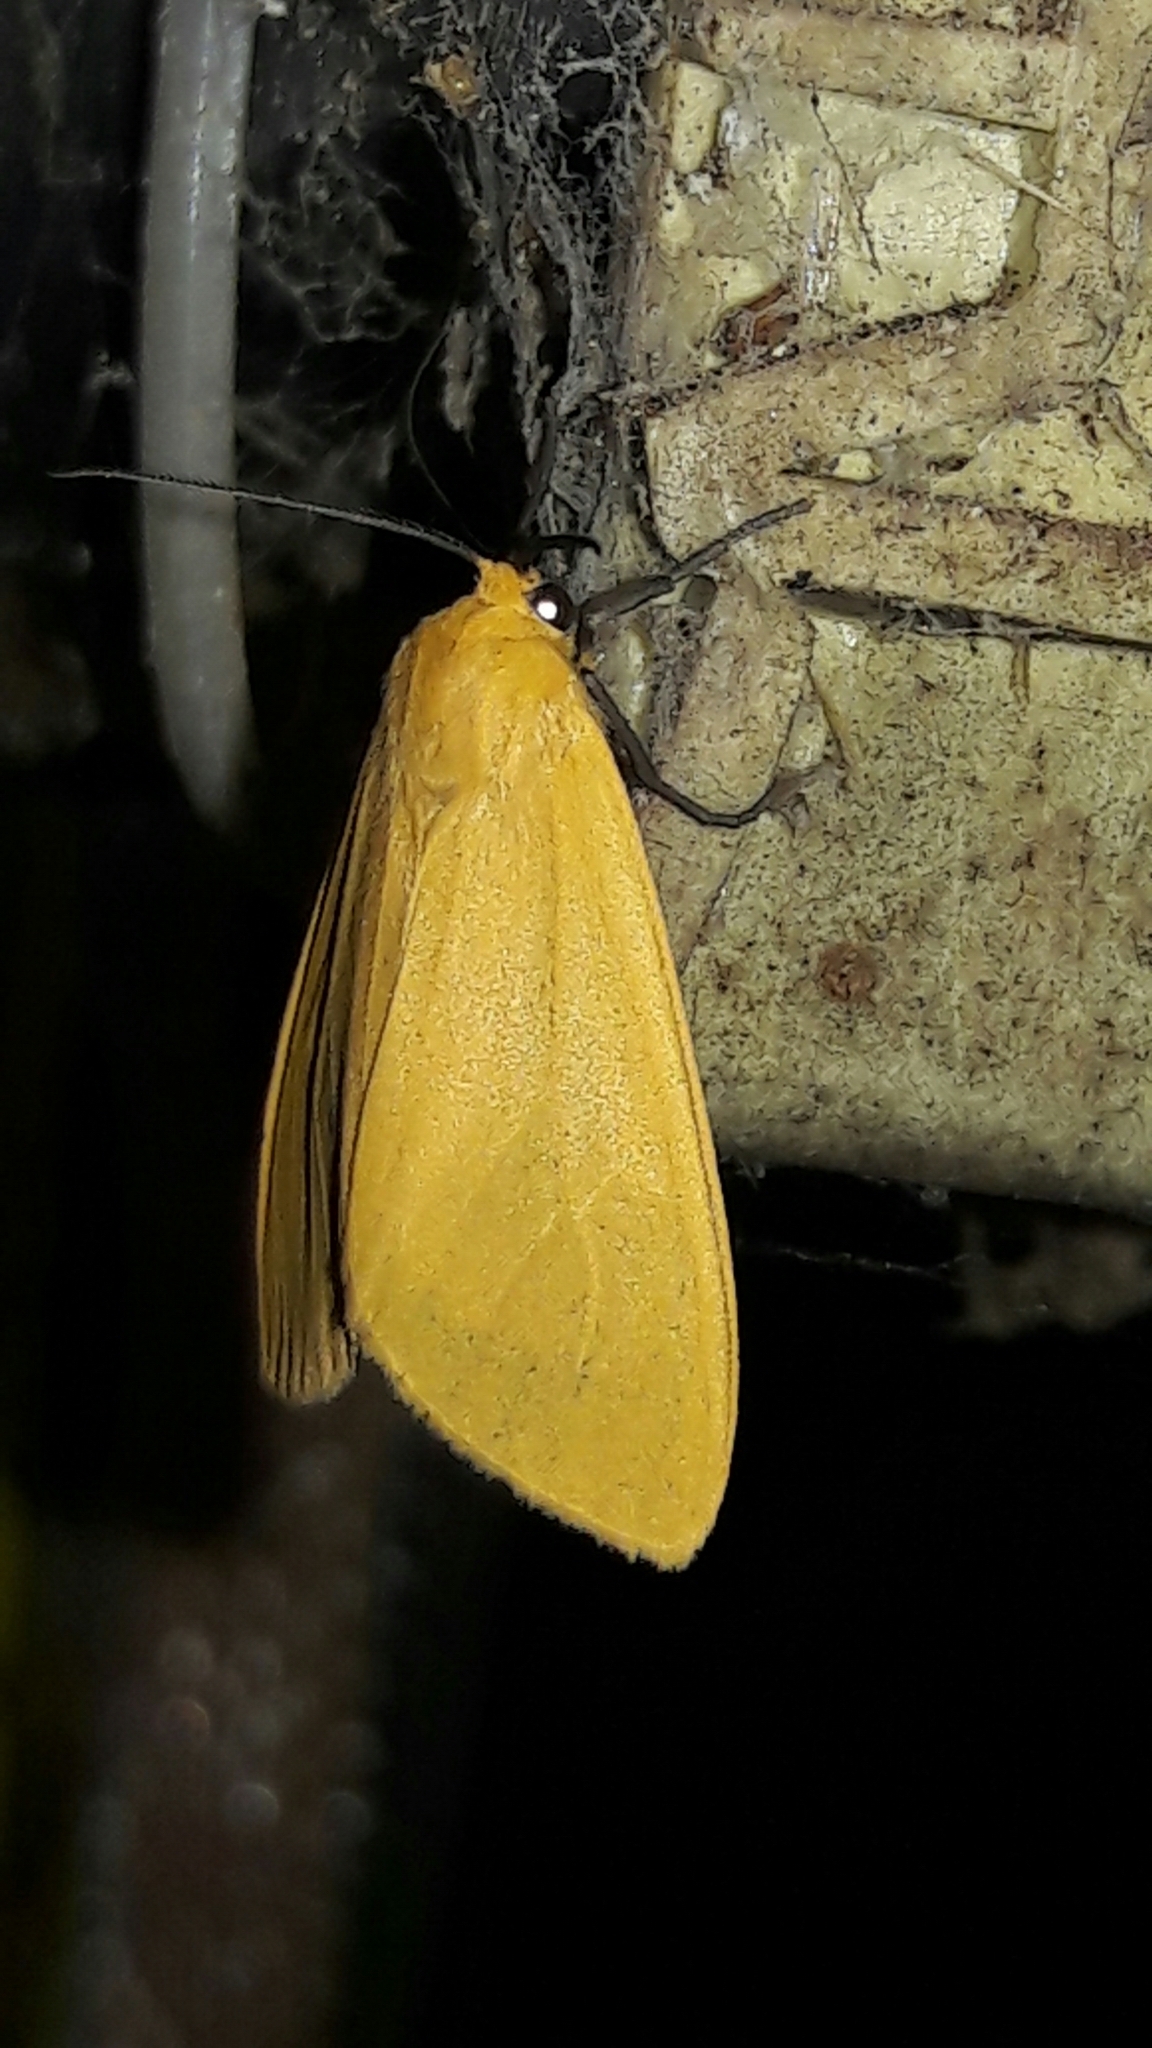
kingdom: Animalia
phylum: Arthropoda
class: Insecta
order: Lepidoptera
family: Erebidae
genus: Pareuchaetes
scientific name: Pareuchaetes aurata
